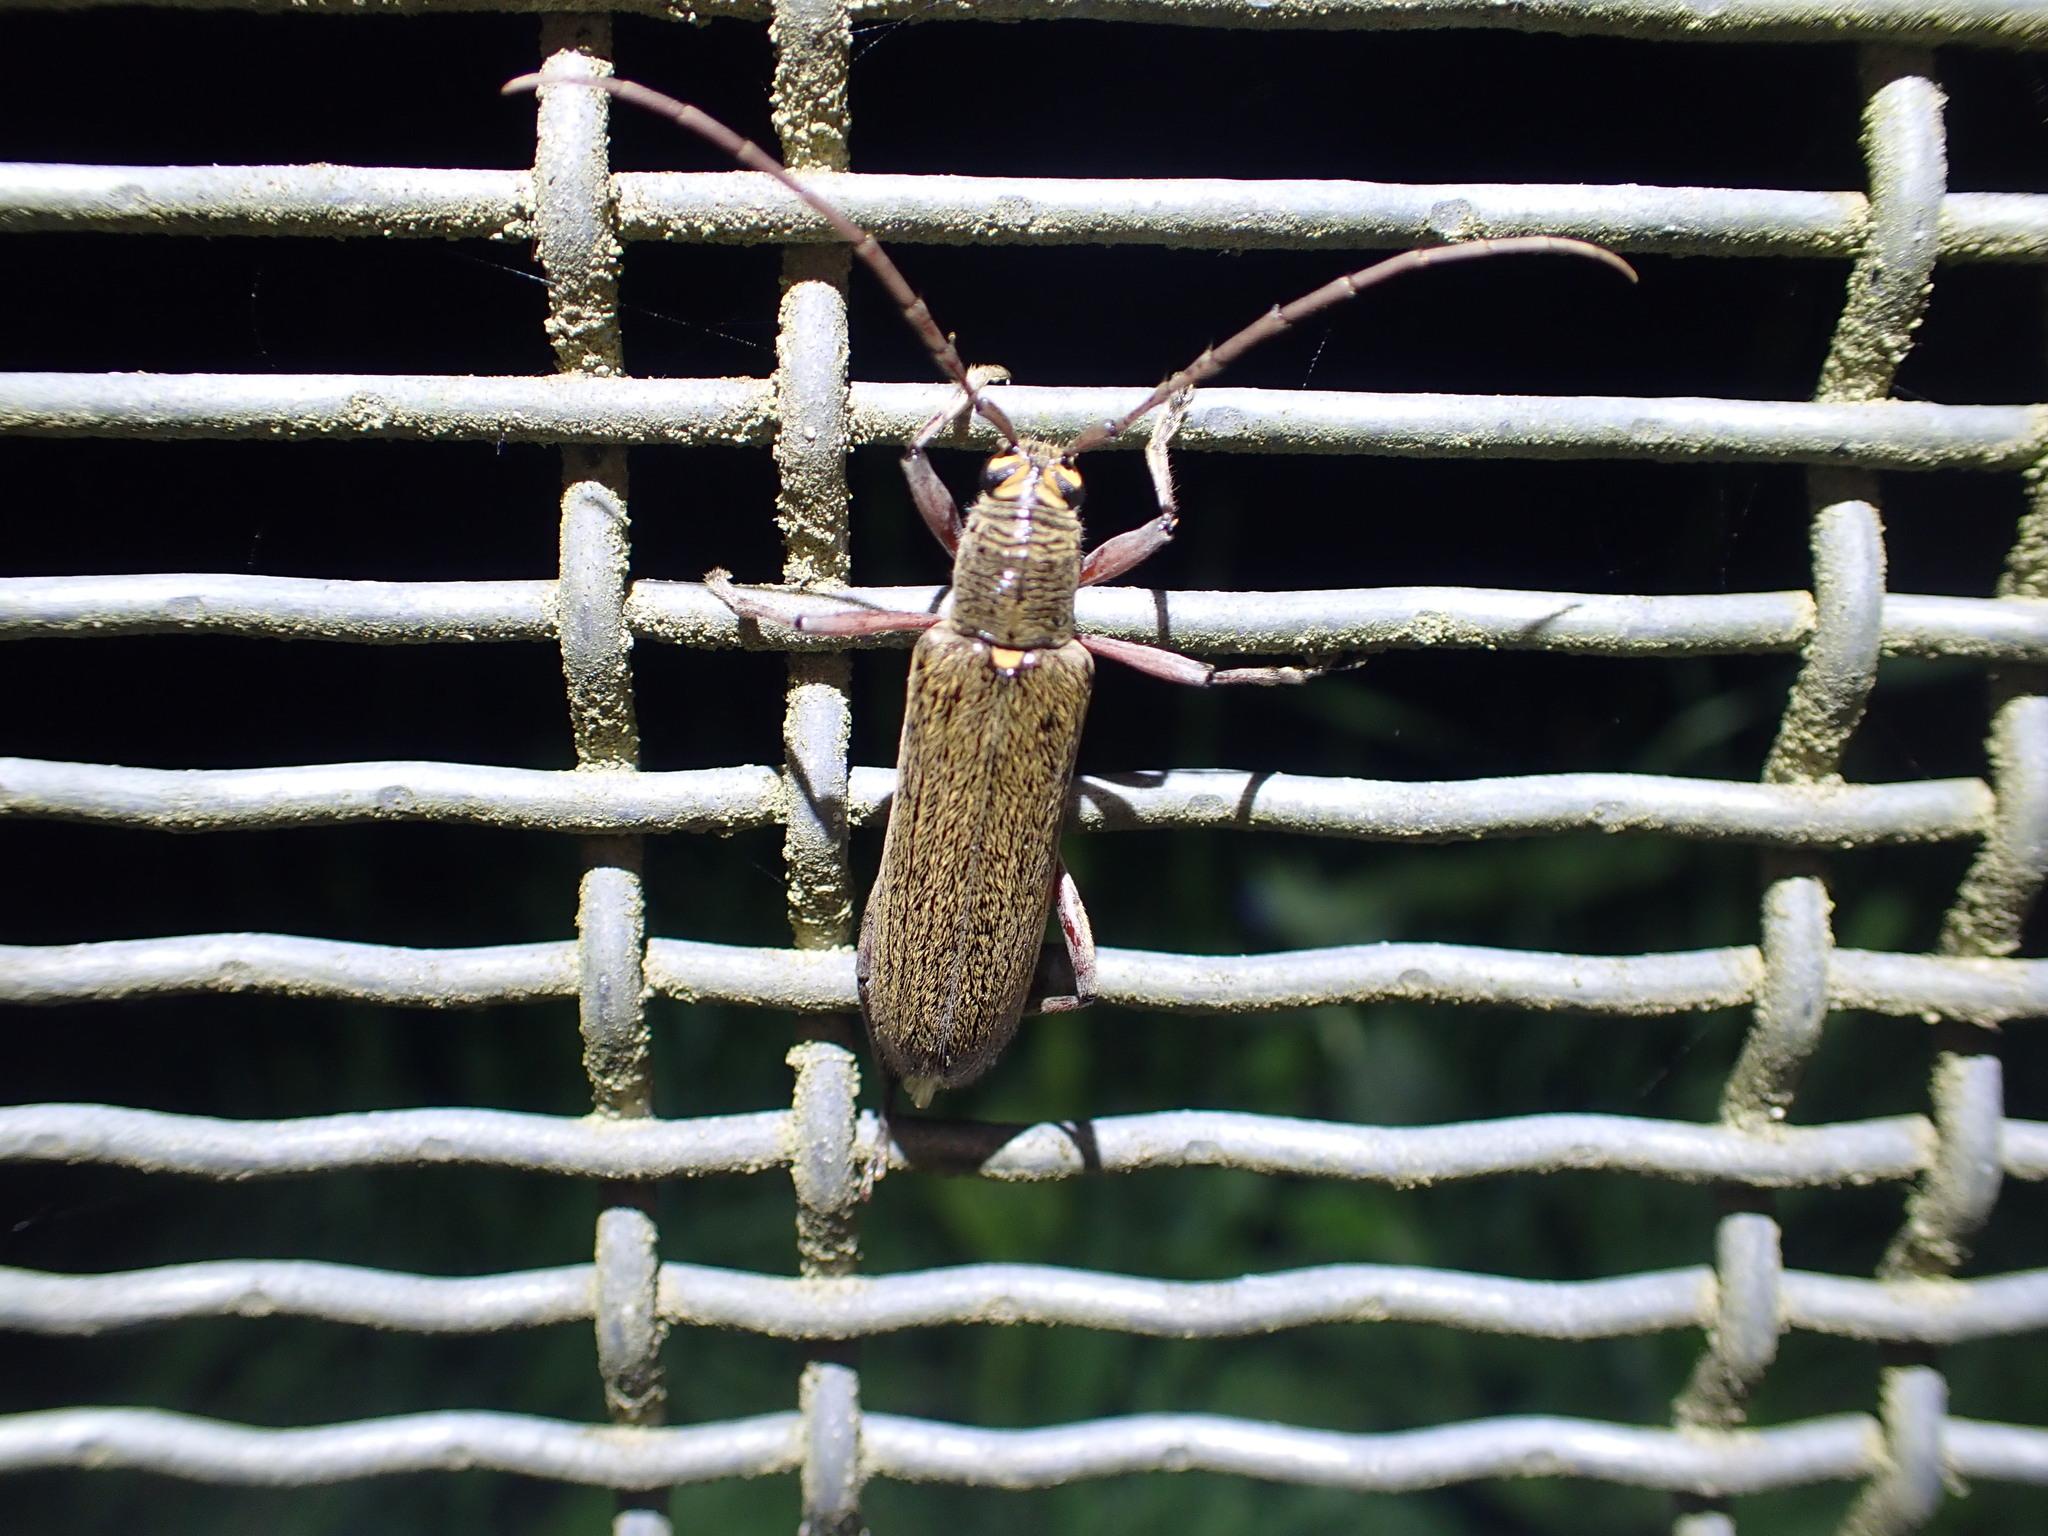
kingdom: Animalia
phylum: Arthropoda
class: Insecta
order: Coleoptera
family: Cerambycidae
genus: Oemona
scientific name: Oemona hirta
